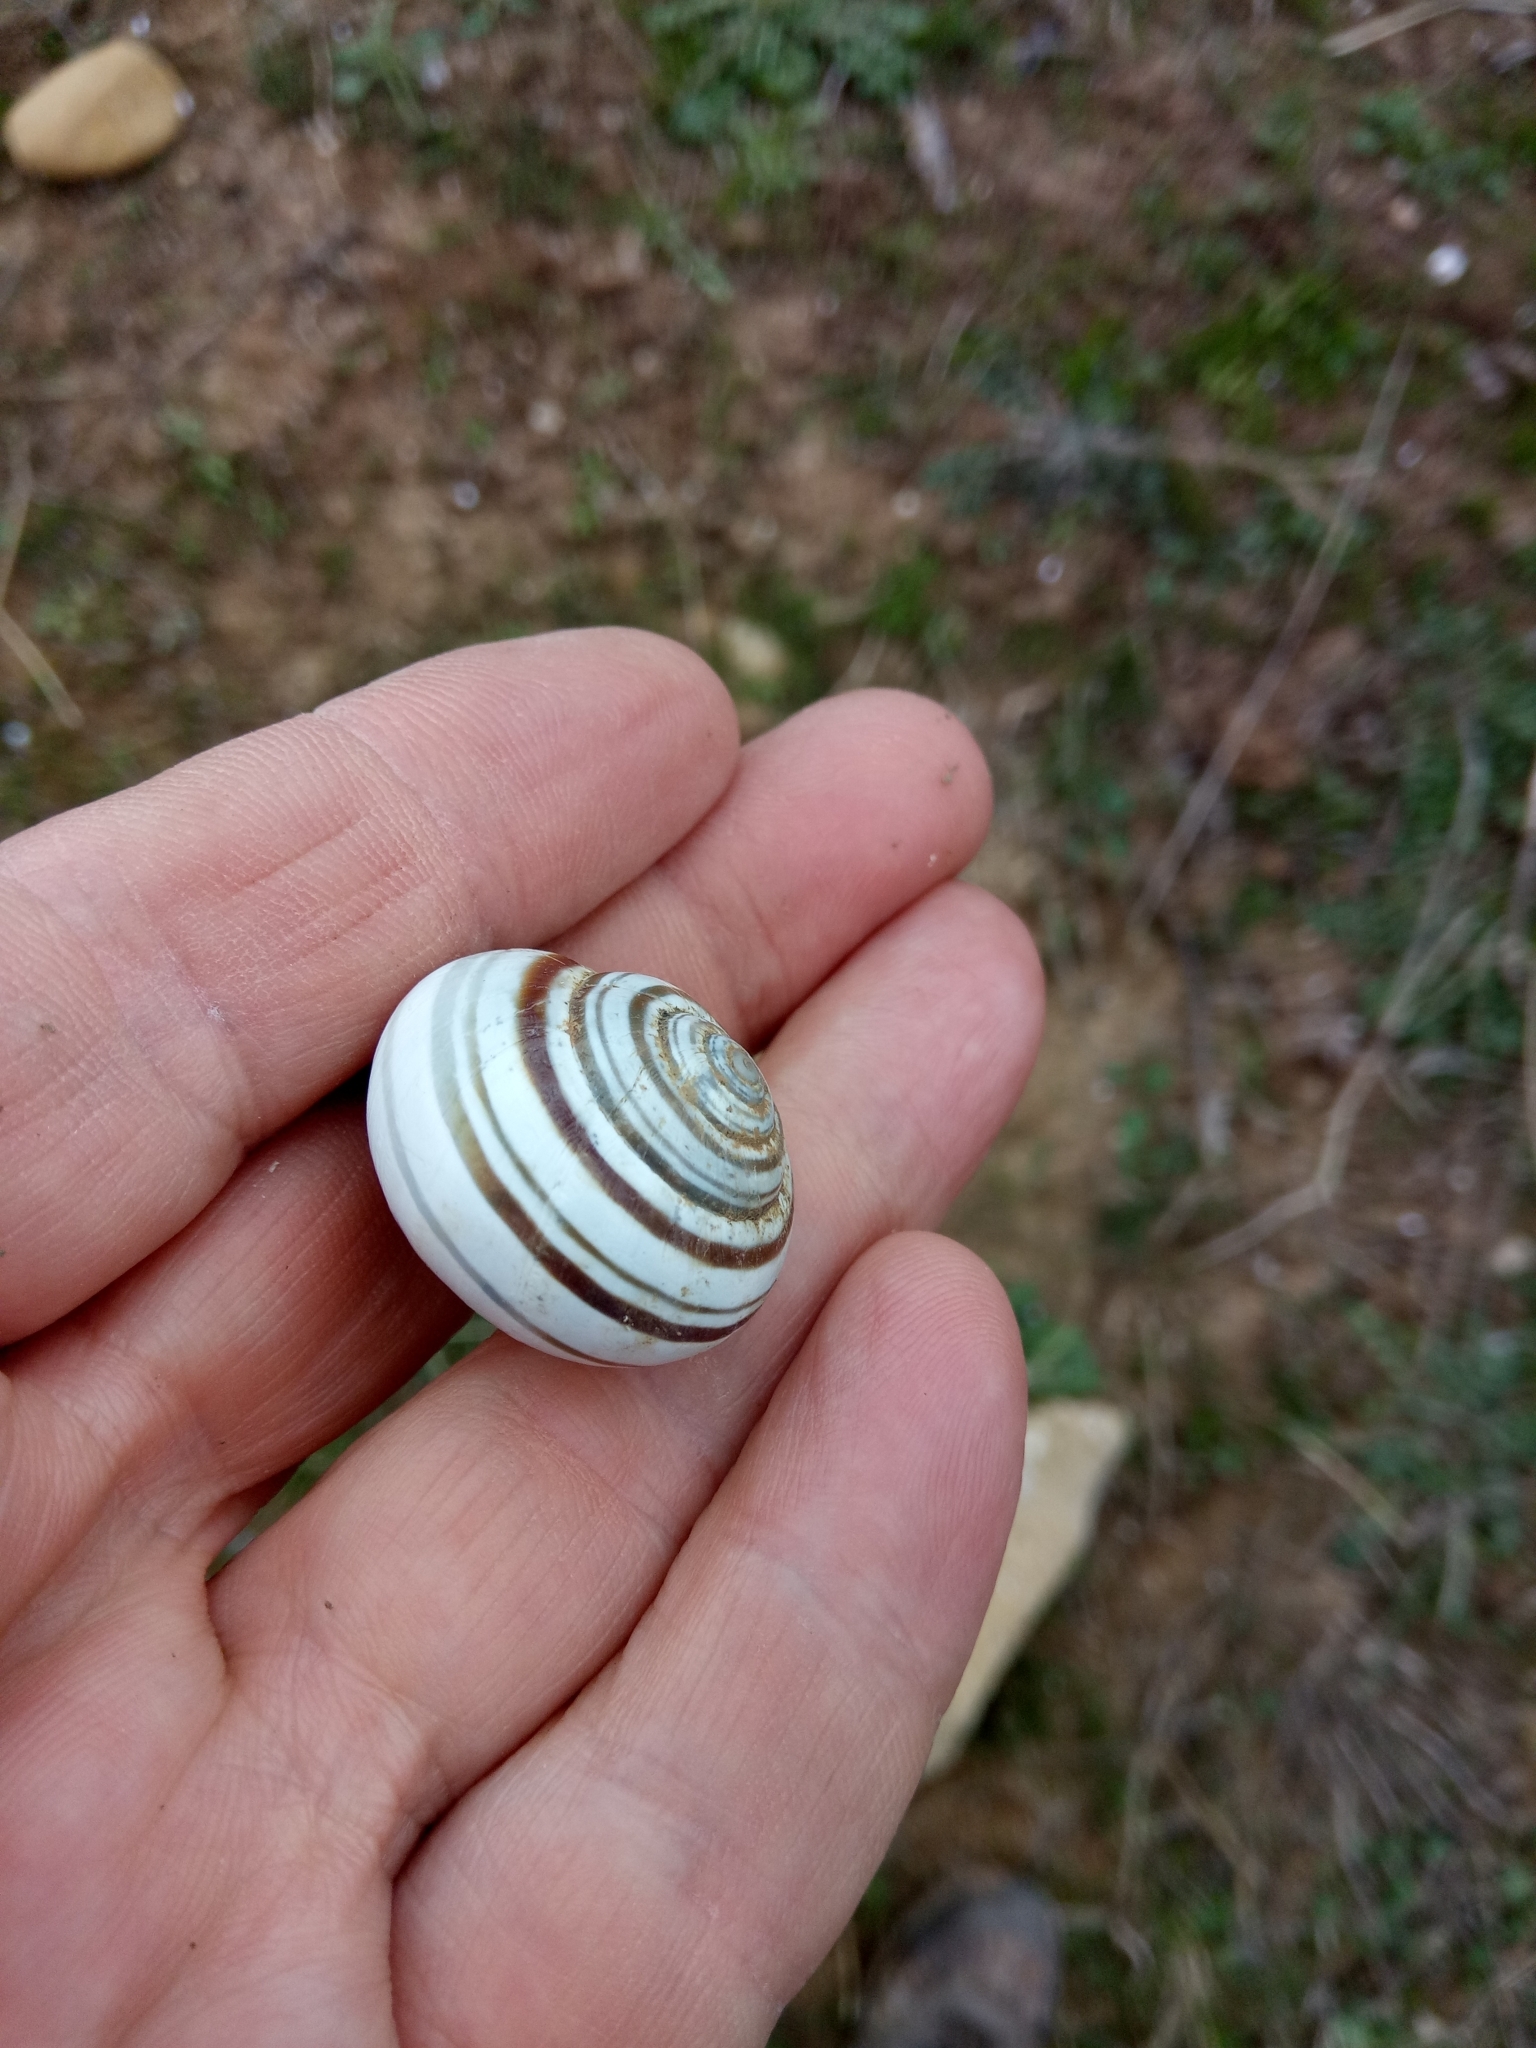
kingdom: Animalia
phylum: Mollusca
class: Gastropoda
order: Stylommatophora
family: Helicidae
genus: Eobania
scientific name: Eobania constantina
